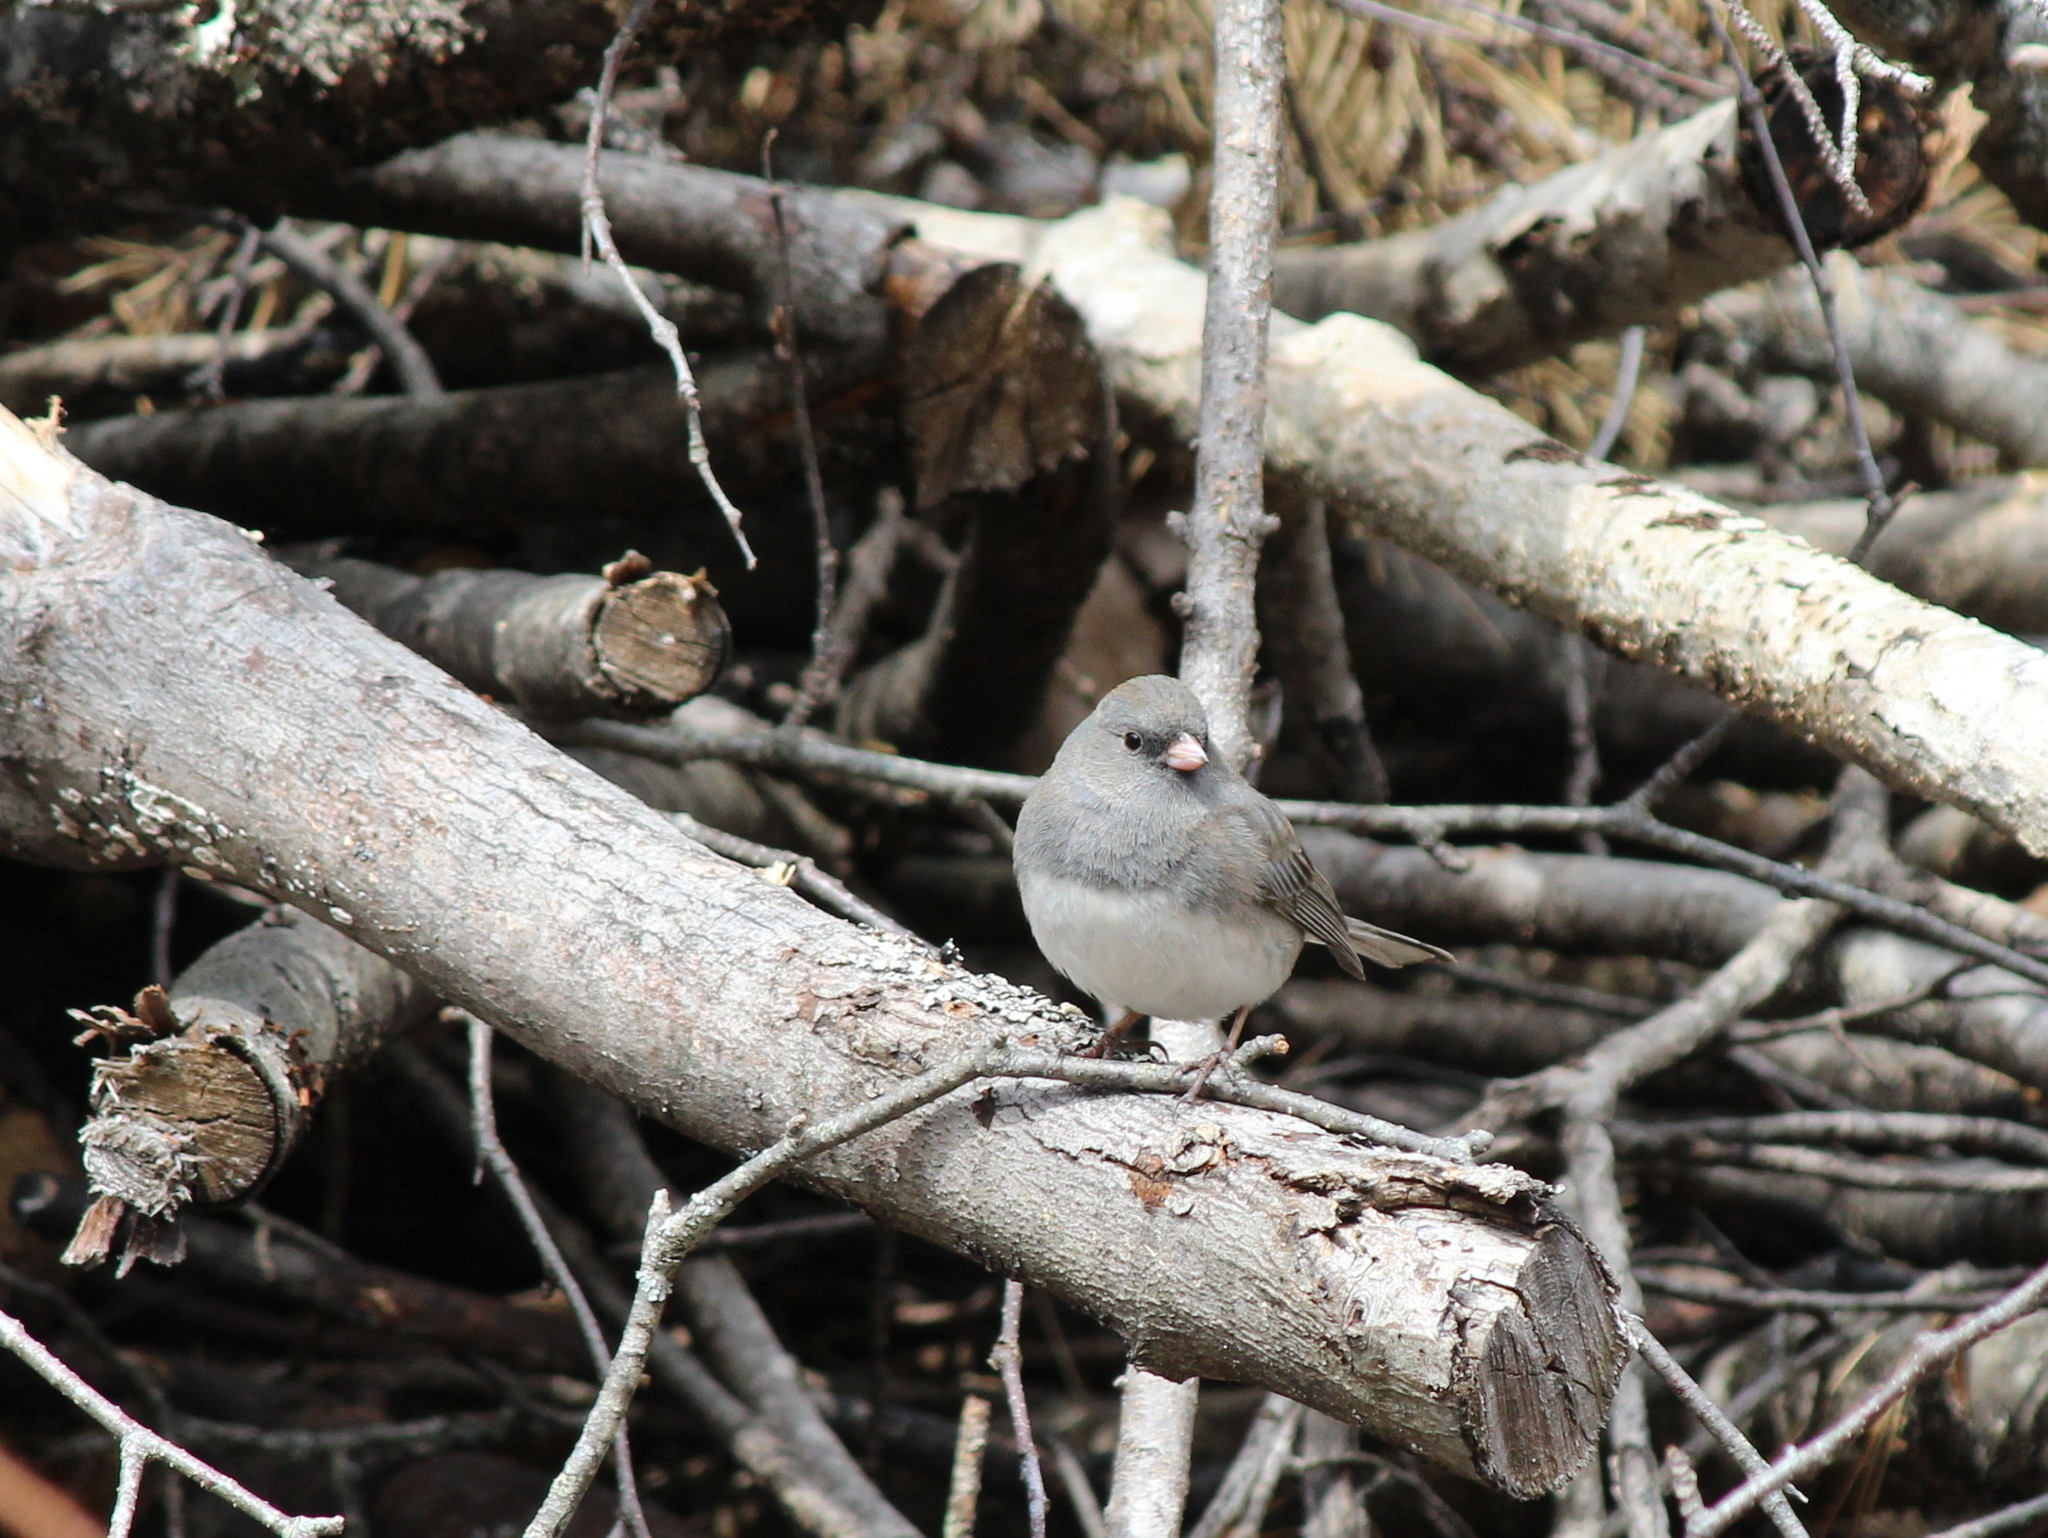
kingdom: Animalia
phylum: Chordata
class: Aves
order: Passeriformes
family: Passerellidae
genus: Junco
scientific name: Junco hyemalis
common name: Dark-eyed junco
